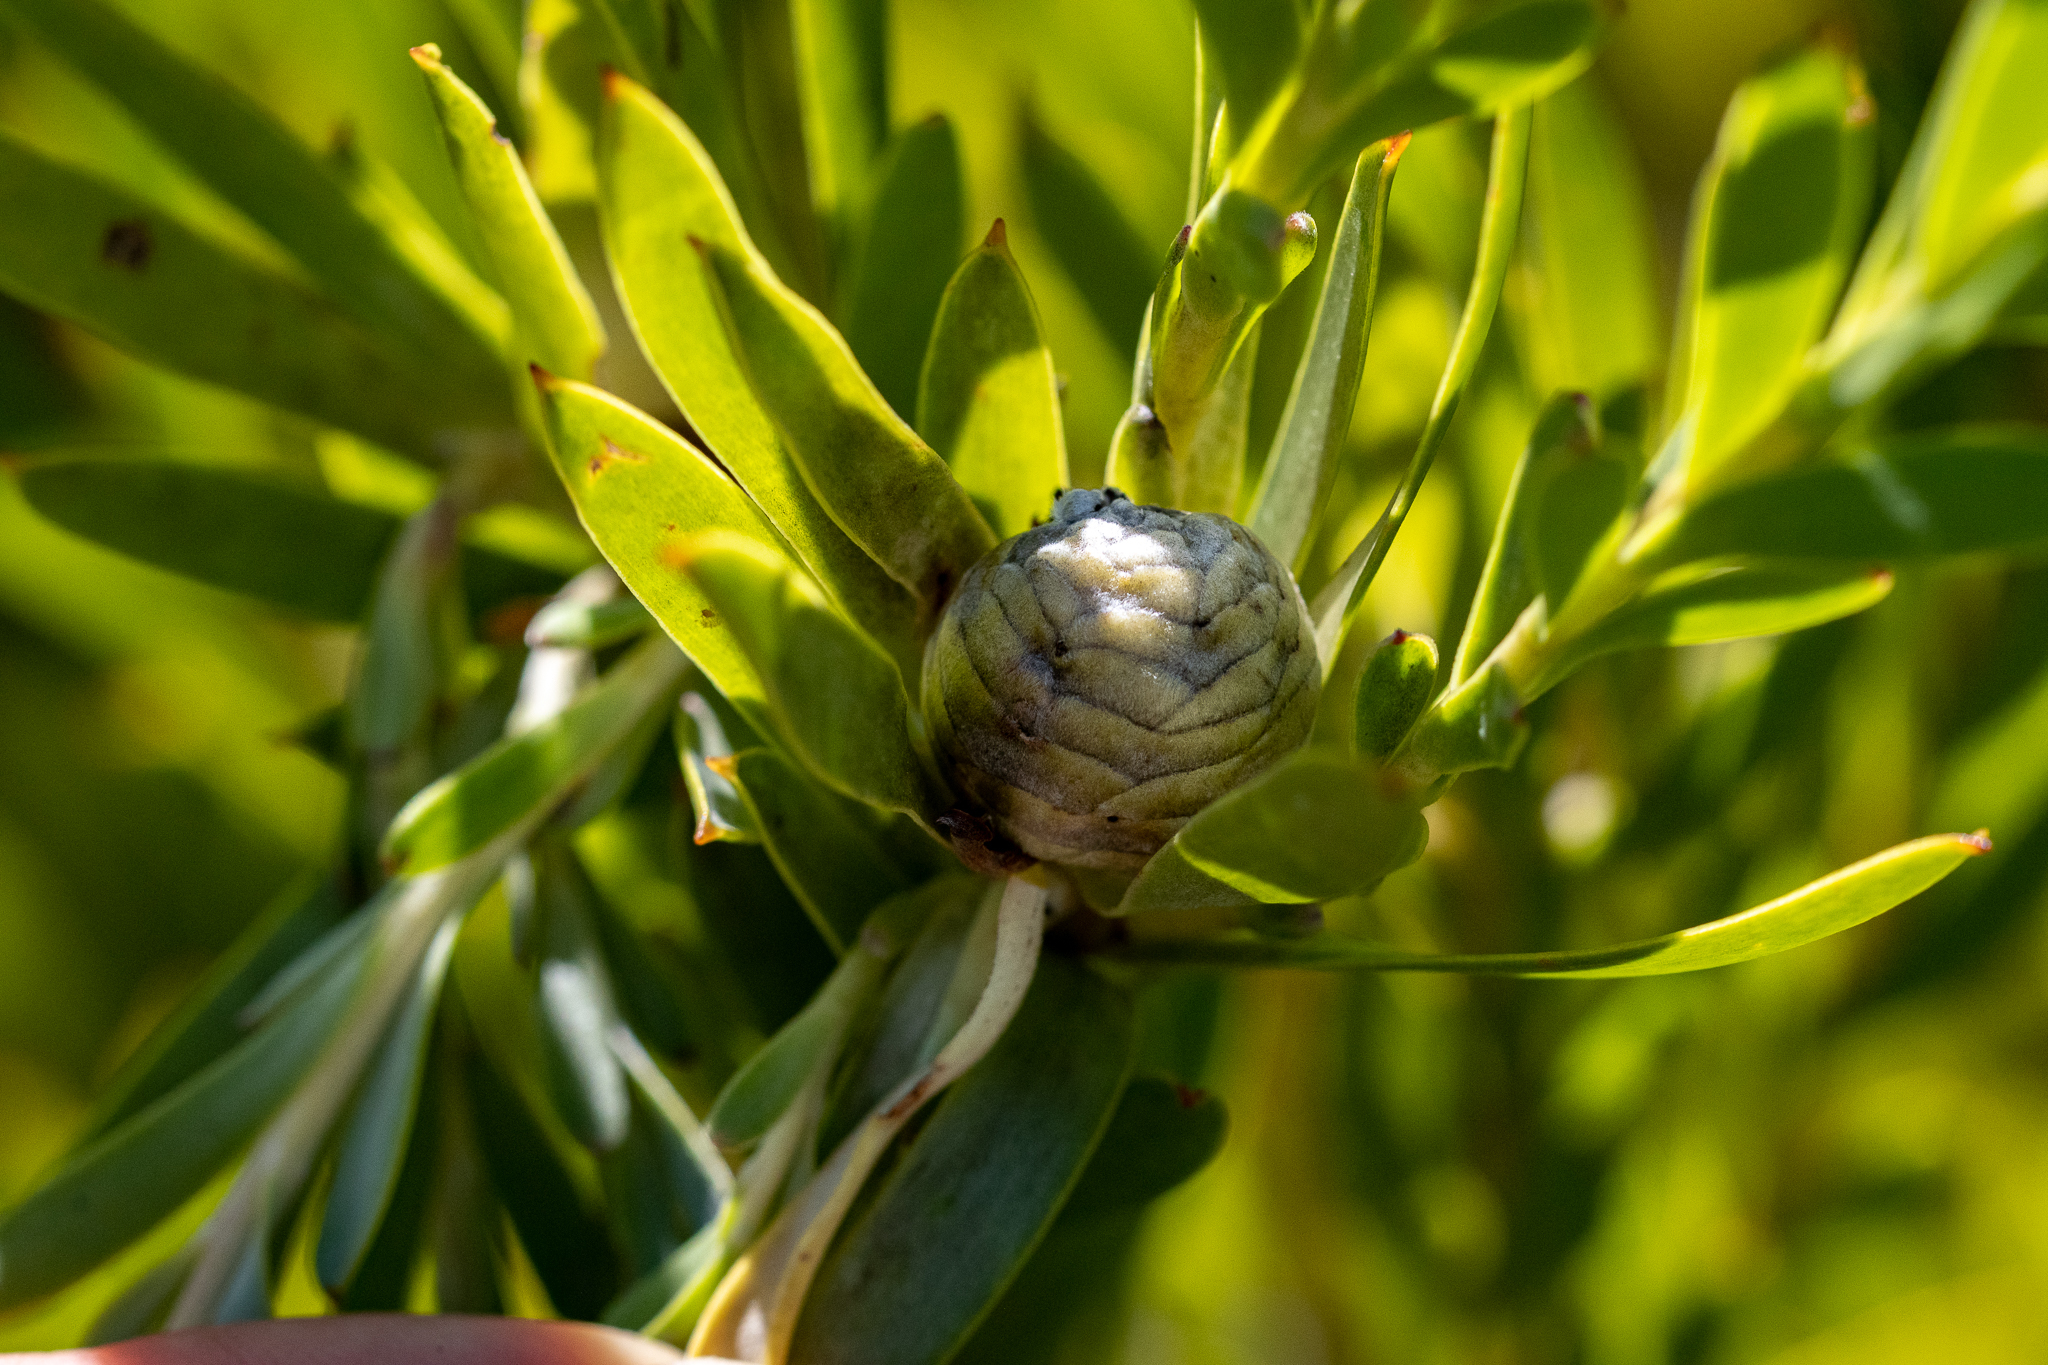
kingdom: Plantae
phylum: Tracheophyta
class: Magnoliopsida
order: Proteales
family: Proteaceae
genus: Leucadendron
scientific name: Leucadendron meridianum
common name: Limestone conebush
